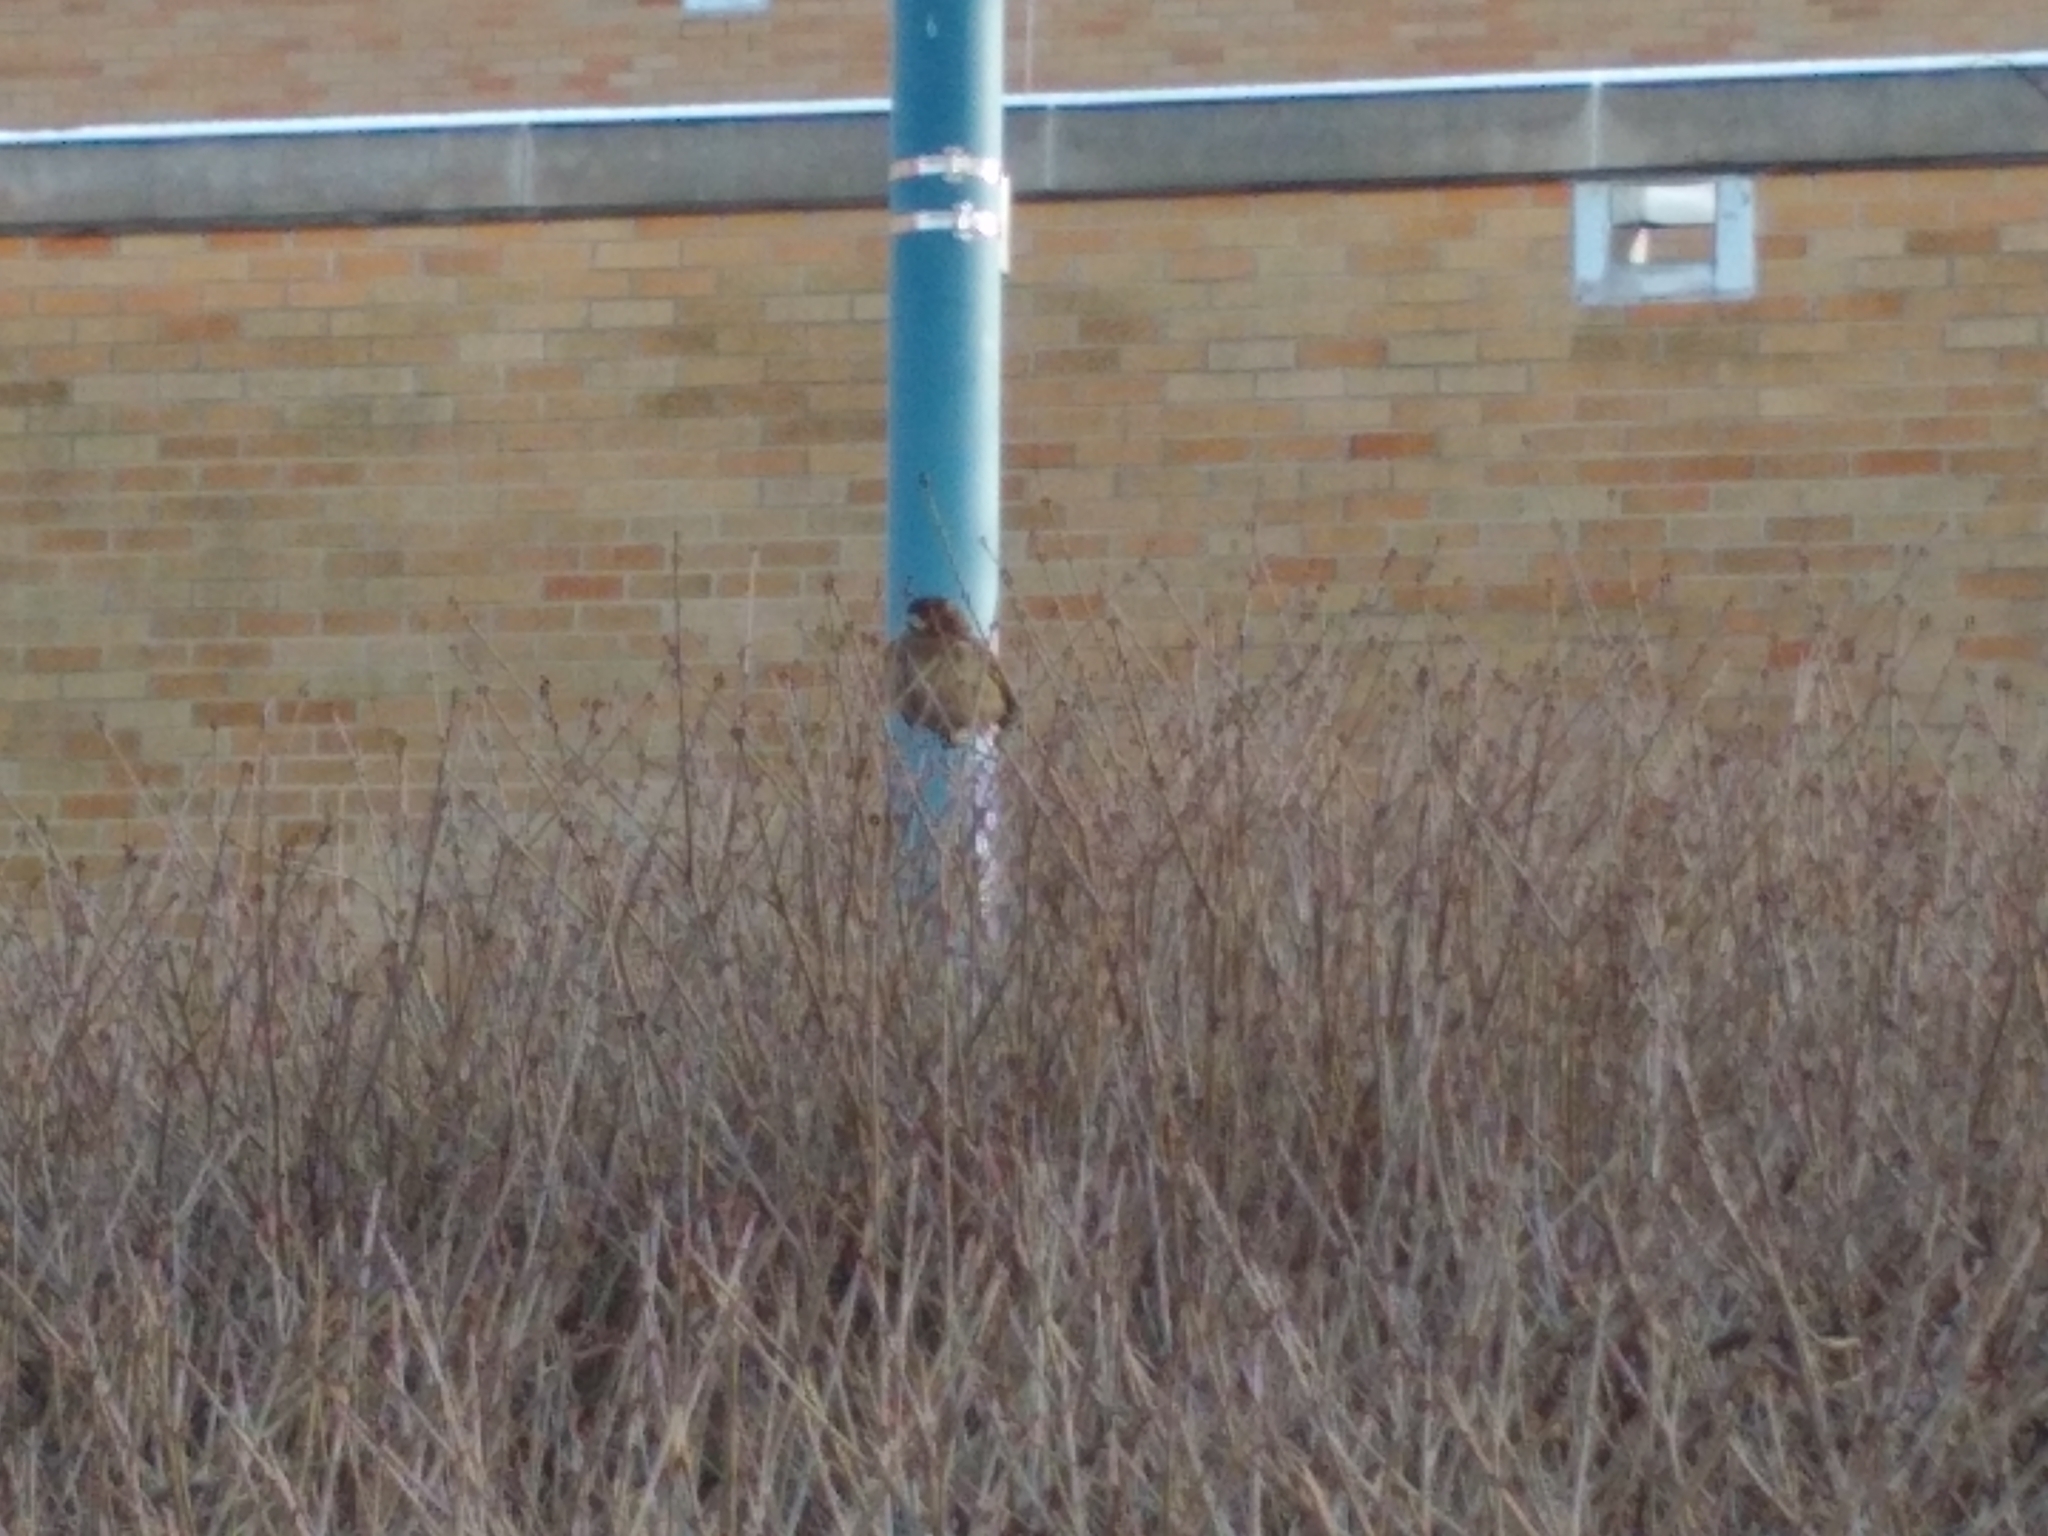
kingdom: Animalia
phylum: Chordata
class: Aves
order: Passeriformes
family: Passeridae
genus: Passer
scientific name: Passer domesticus
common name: House sparrow
